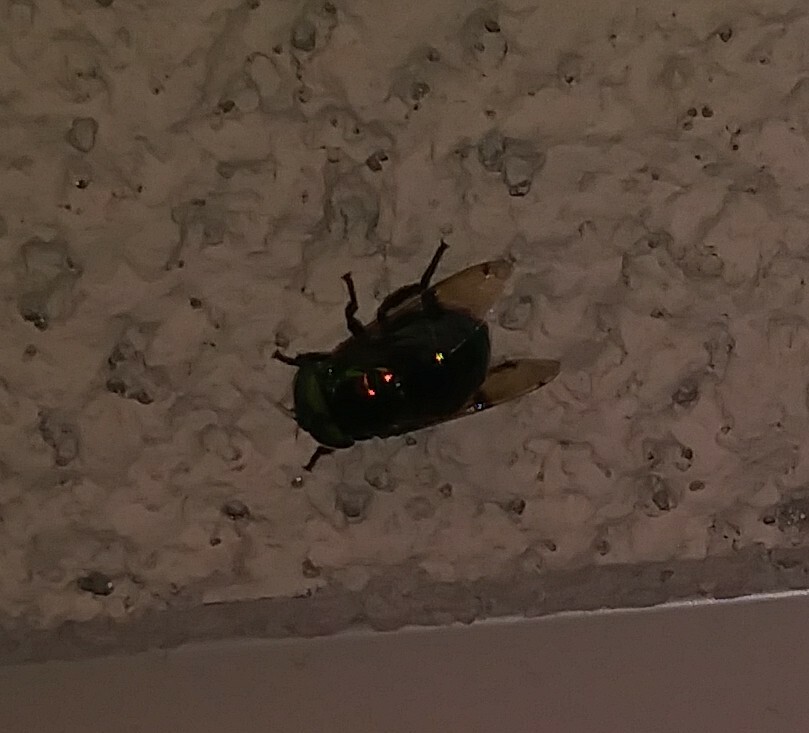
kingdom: Animalia
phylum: Arthropoda
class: Insecta
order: Diptera
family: Syrphidae
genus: Ornidia
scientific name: Ornidia obesa
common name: Syrphid fly
